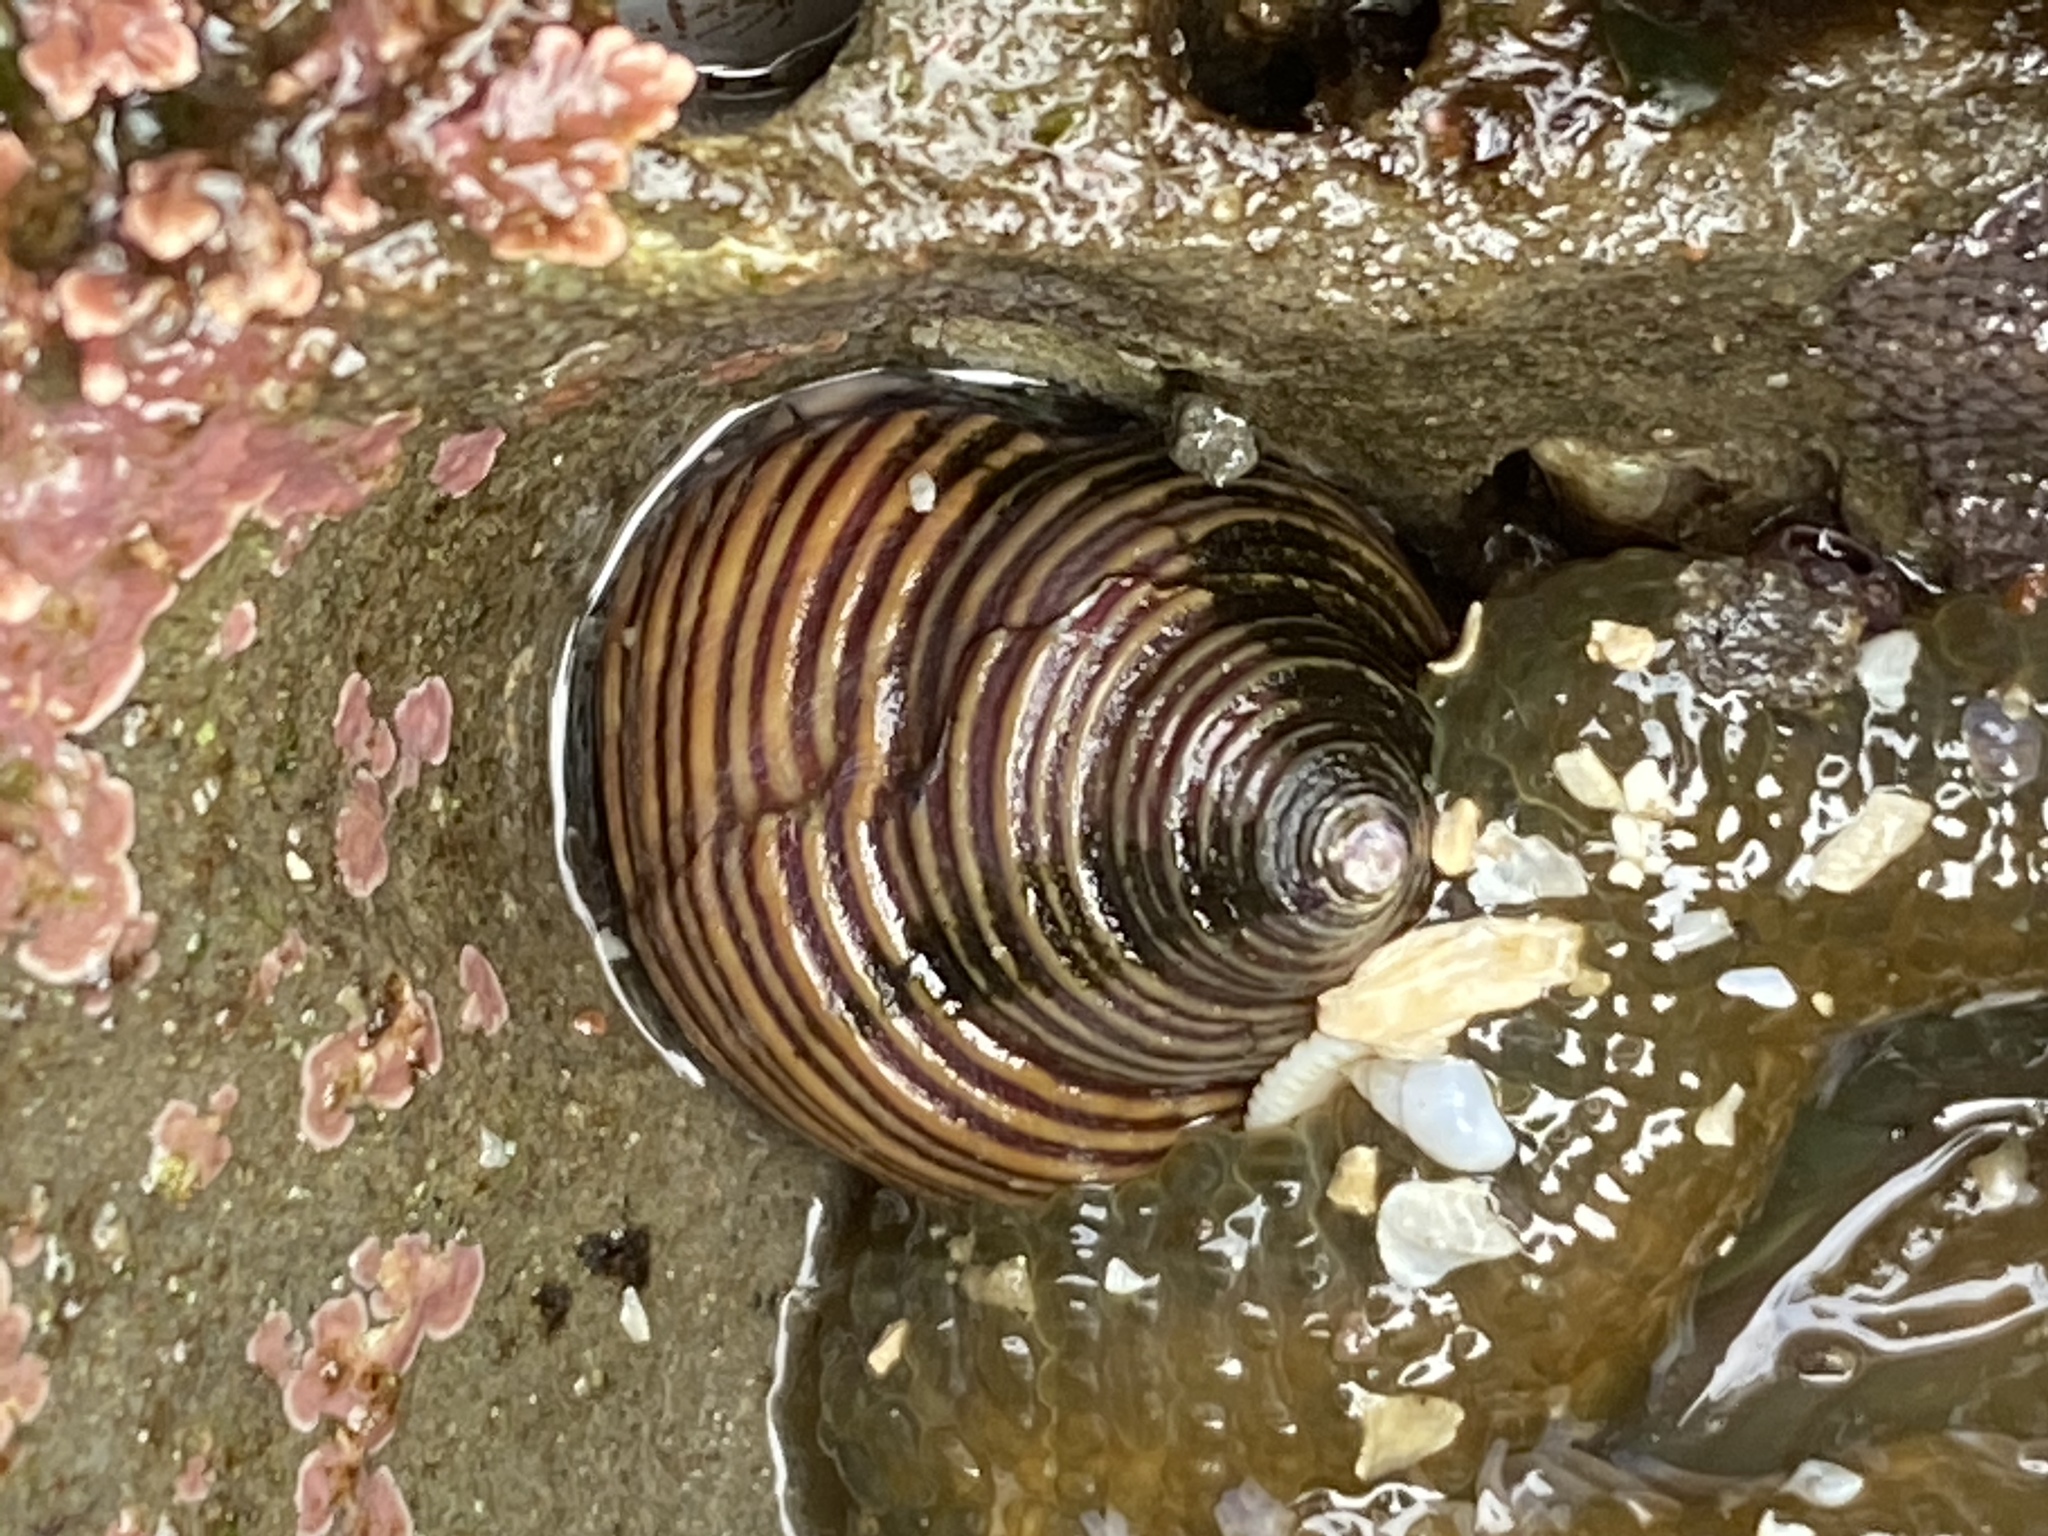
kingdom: Animalia
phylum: Mollusca
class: Gastropoda
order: Trochida
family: Calliostomatidae
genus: Calliostoma
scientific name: Calliostoma ligatum
